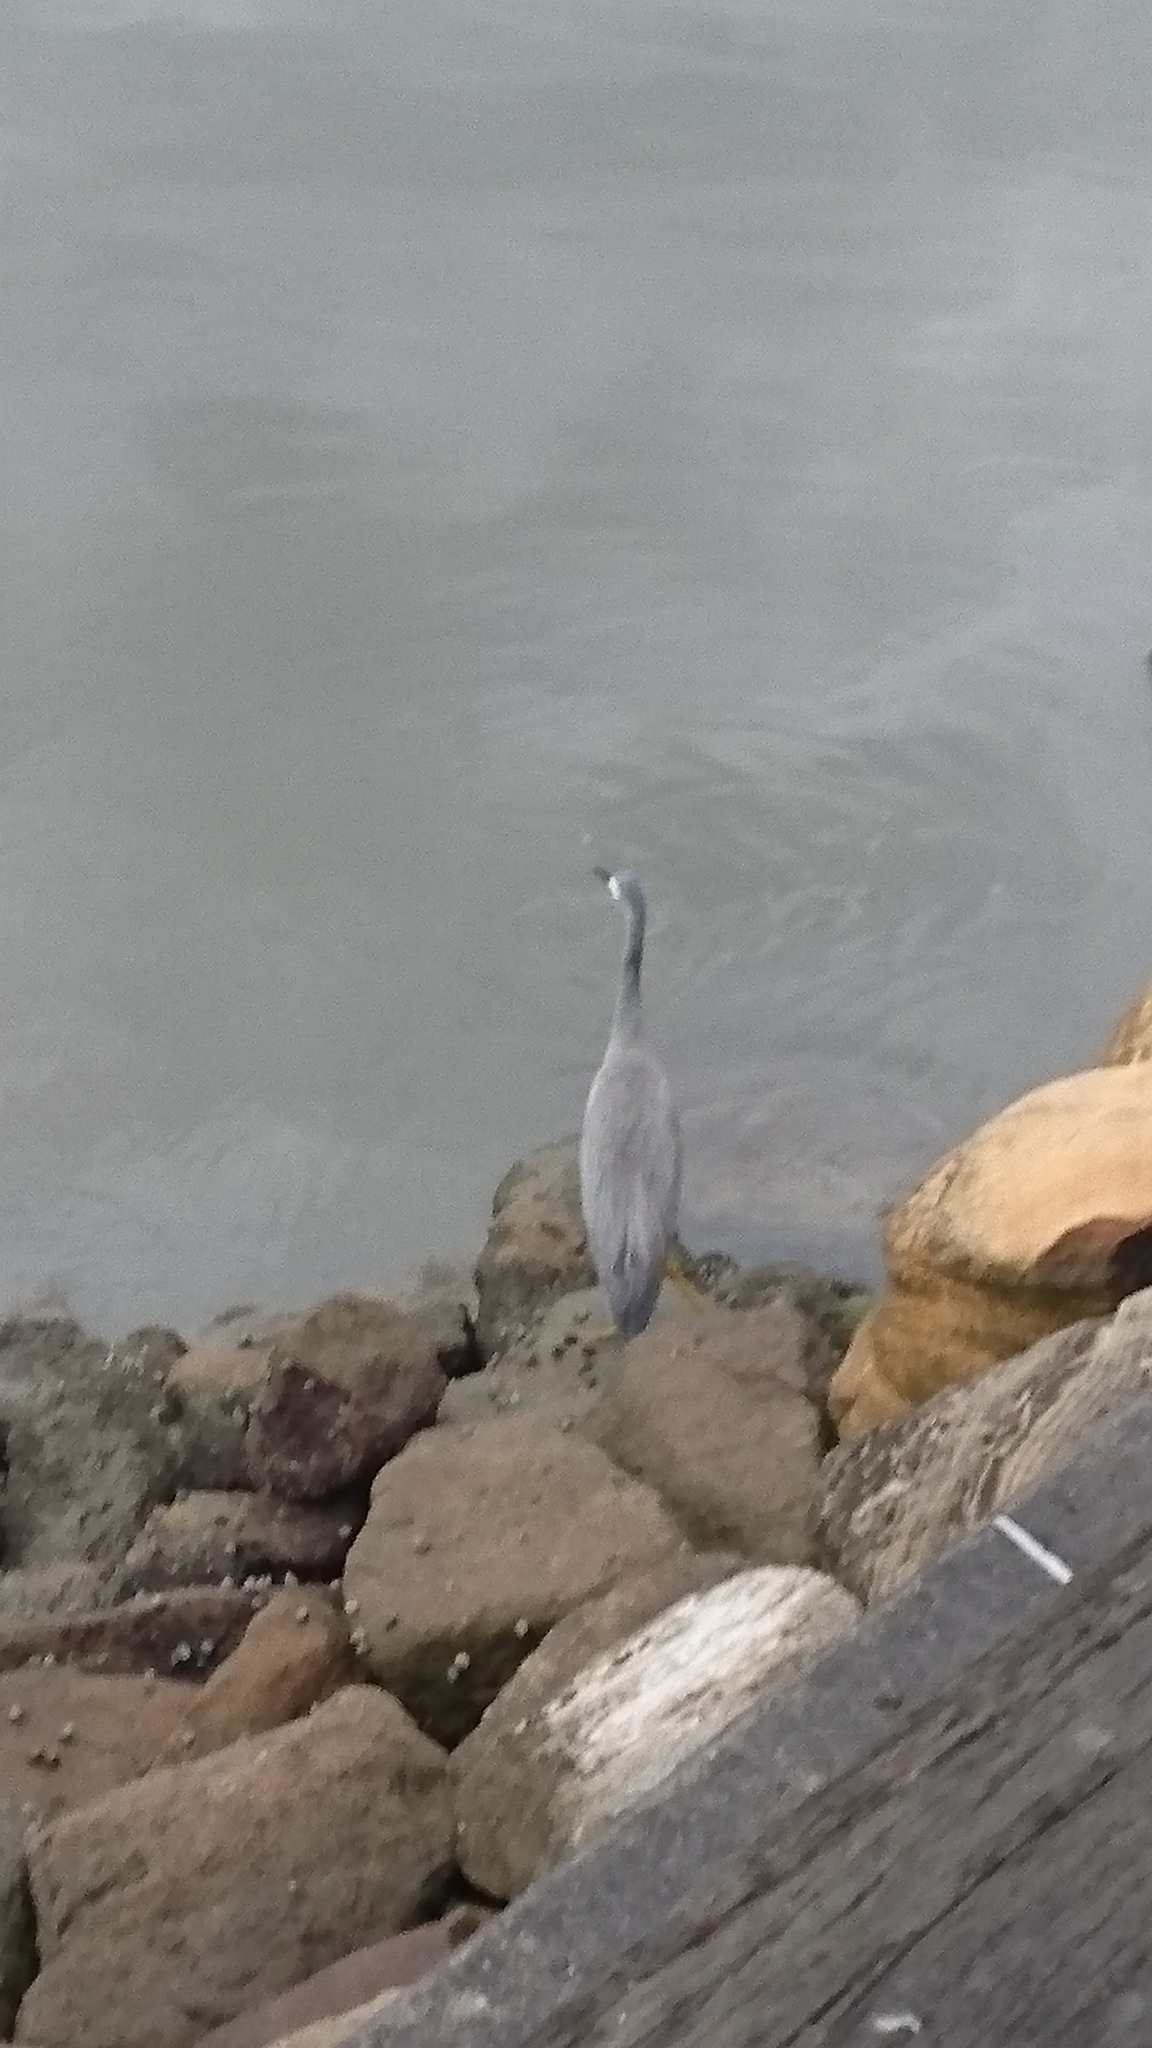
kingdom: Animalia
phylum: Chordata
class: Aves
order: Pelecaniformes
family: Ardeidae
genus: Egretta
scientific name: Egretta novaehollandiae
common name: White-faced heron
